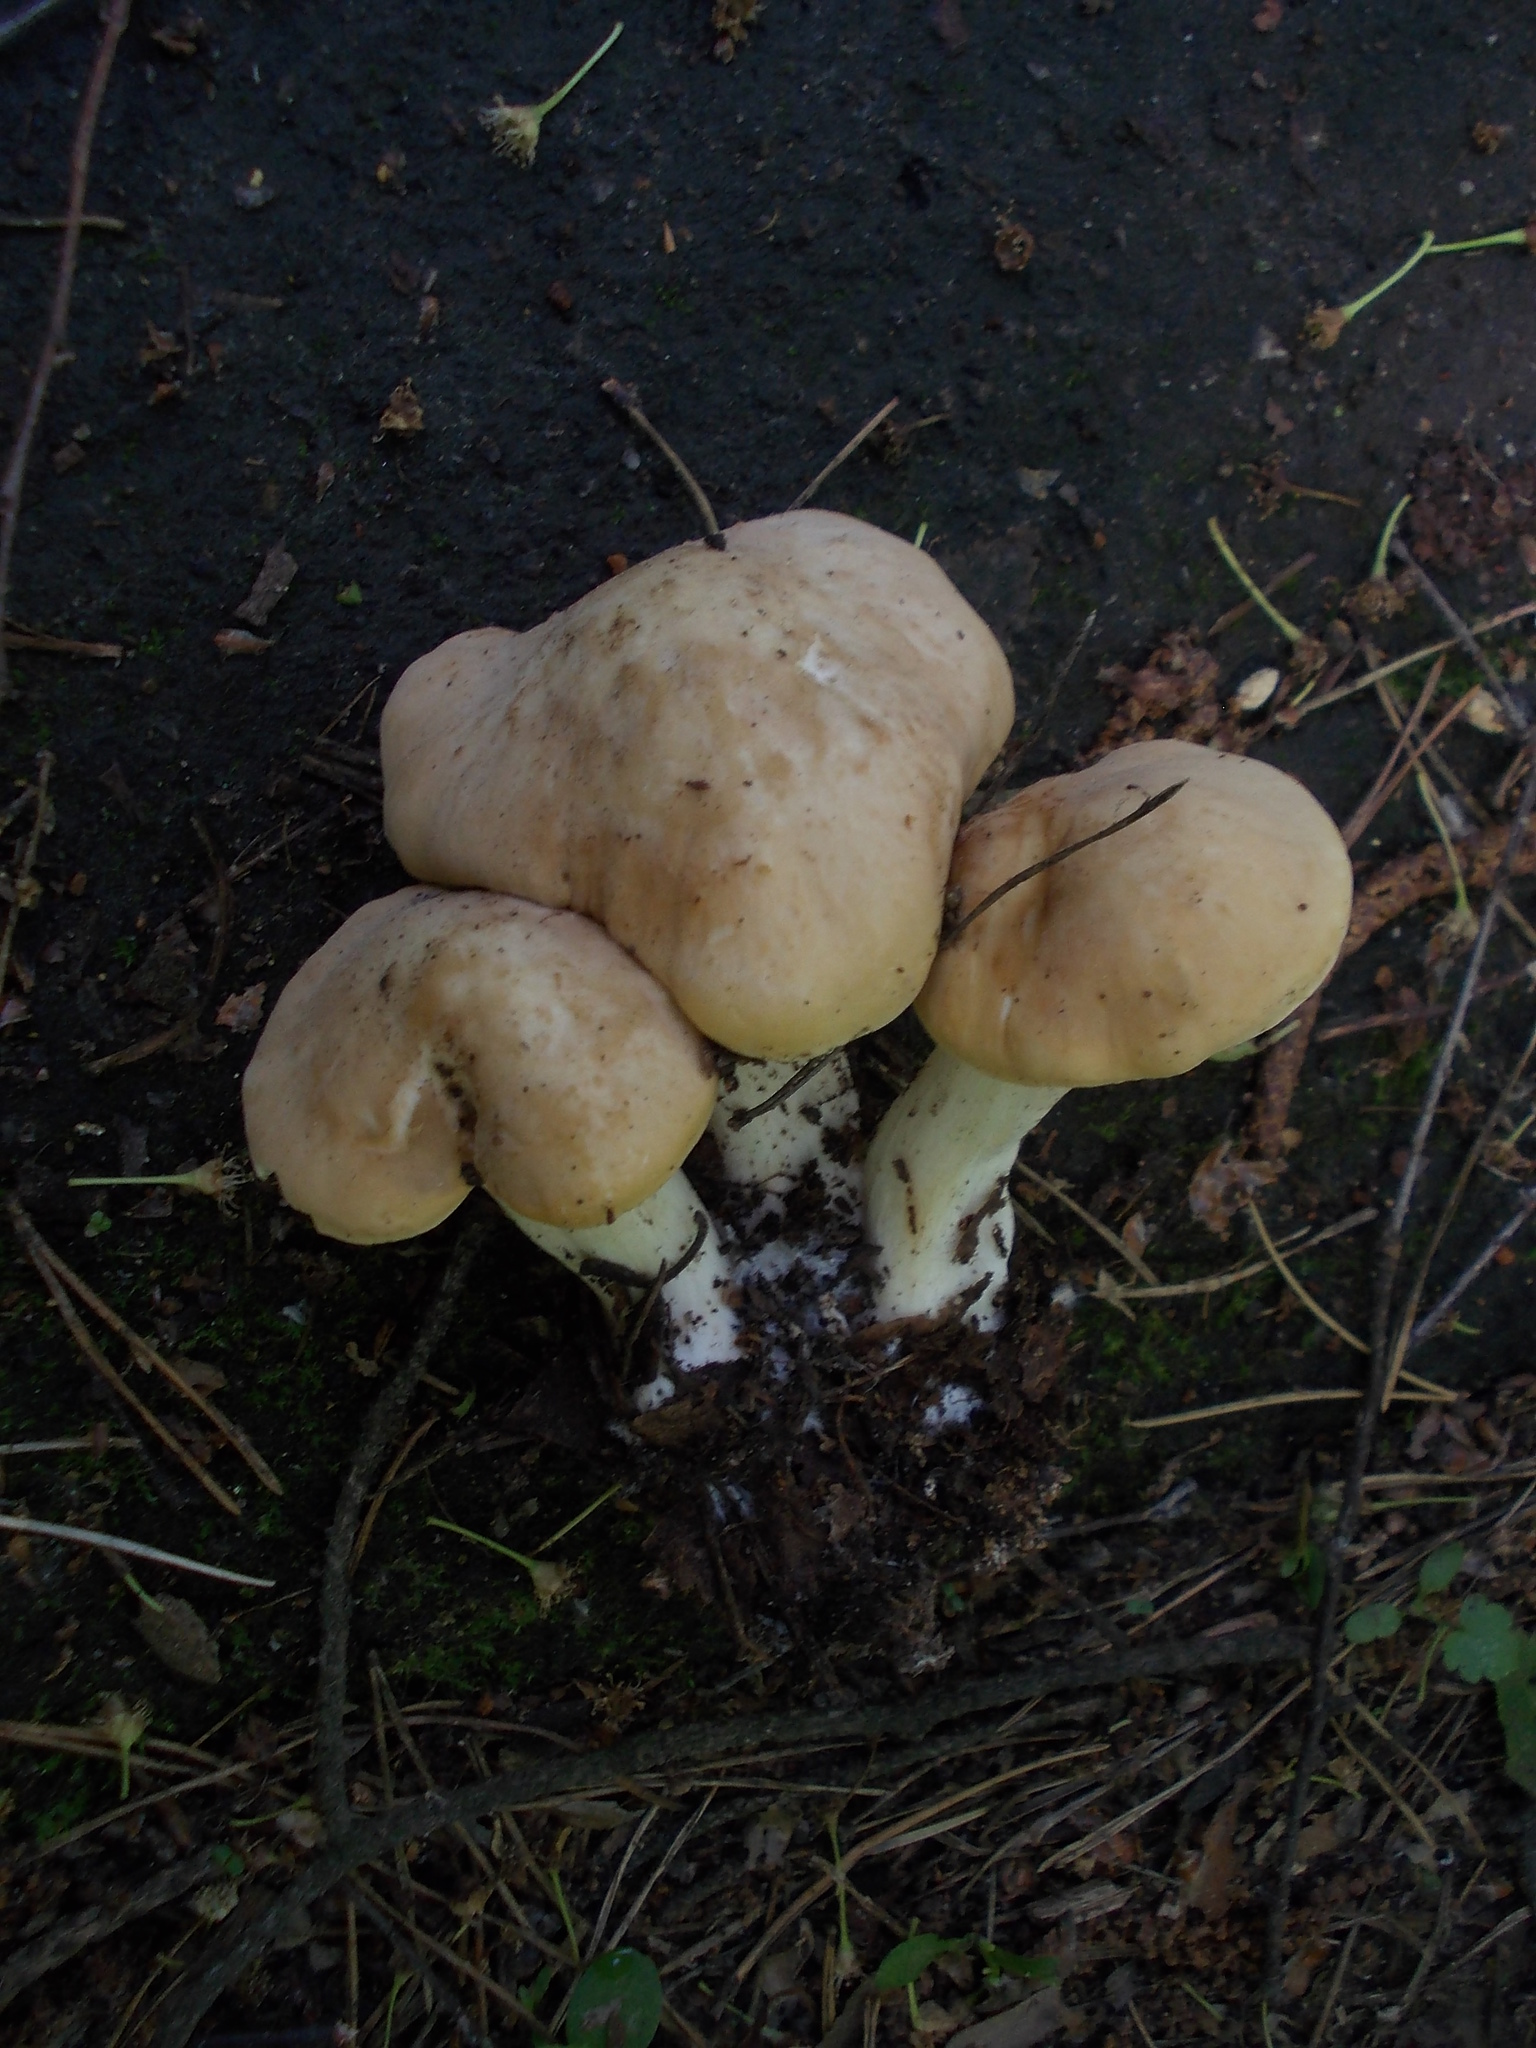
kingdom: Fungi
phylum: Basidiomycota
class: Agaricomycetes
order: Agaricales
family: Lyophyllaceae
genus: Calocybe
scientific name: Calocybe gambosa
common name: St. george's mushroom
